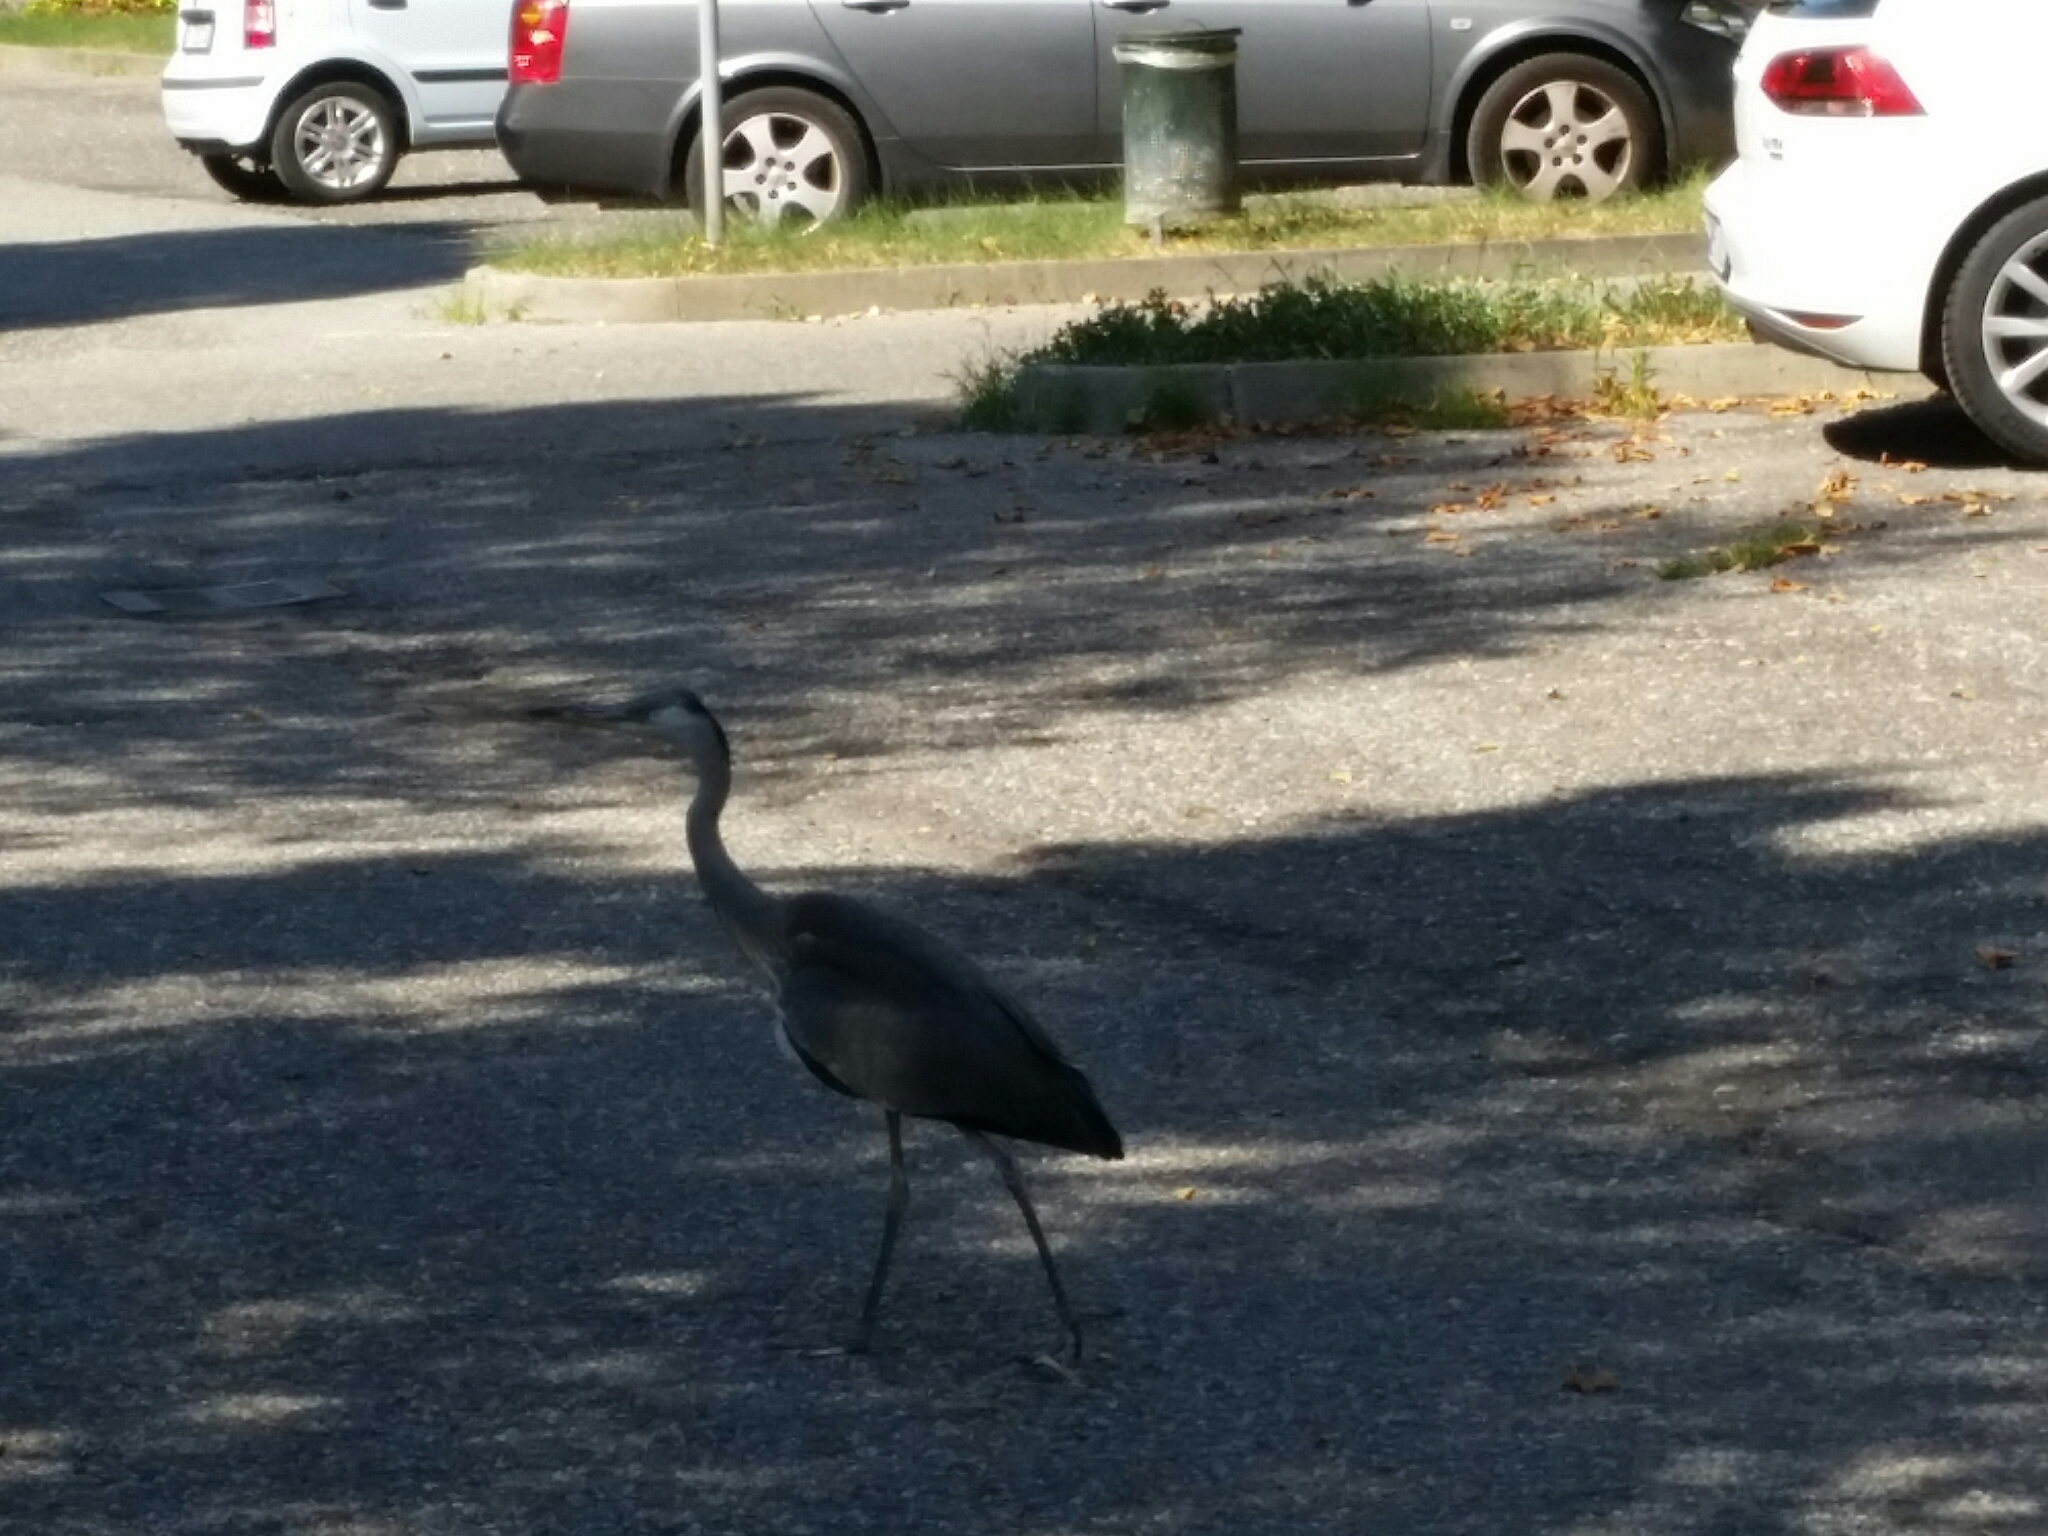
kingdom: Animalia
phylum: Chordata
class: Aves
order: Pelecaniformes
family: Ardeidae
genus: Ardea
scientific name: Ardea cinerea
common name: Grey heron
